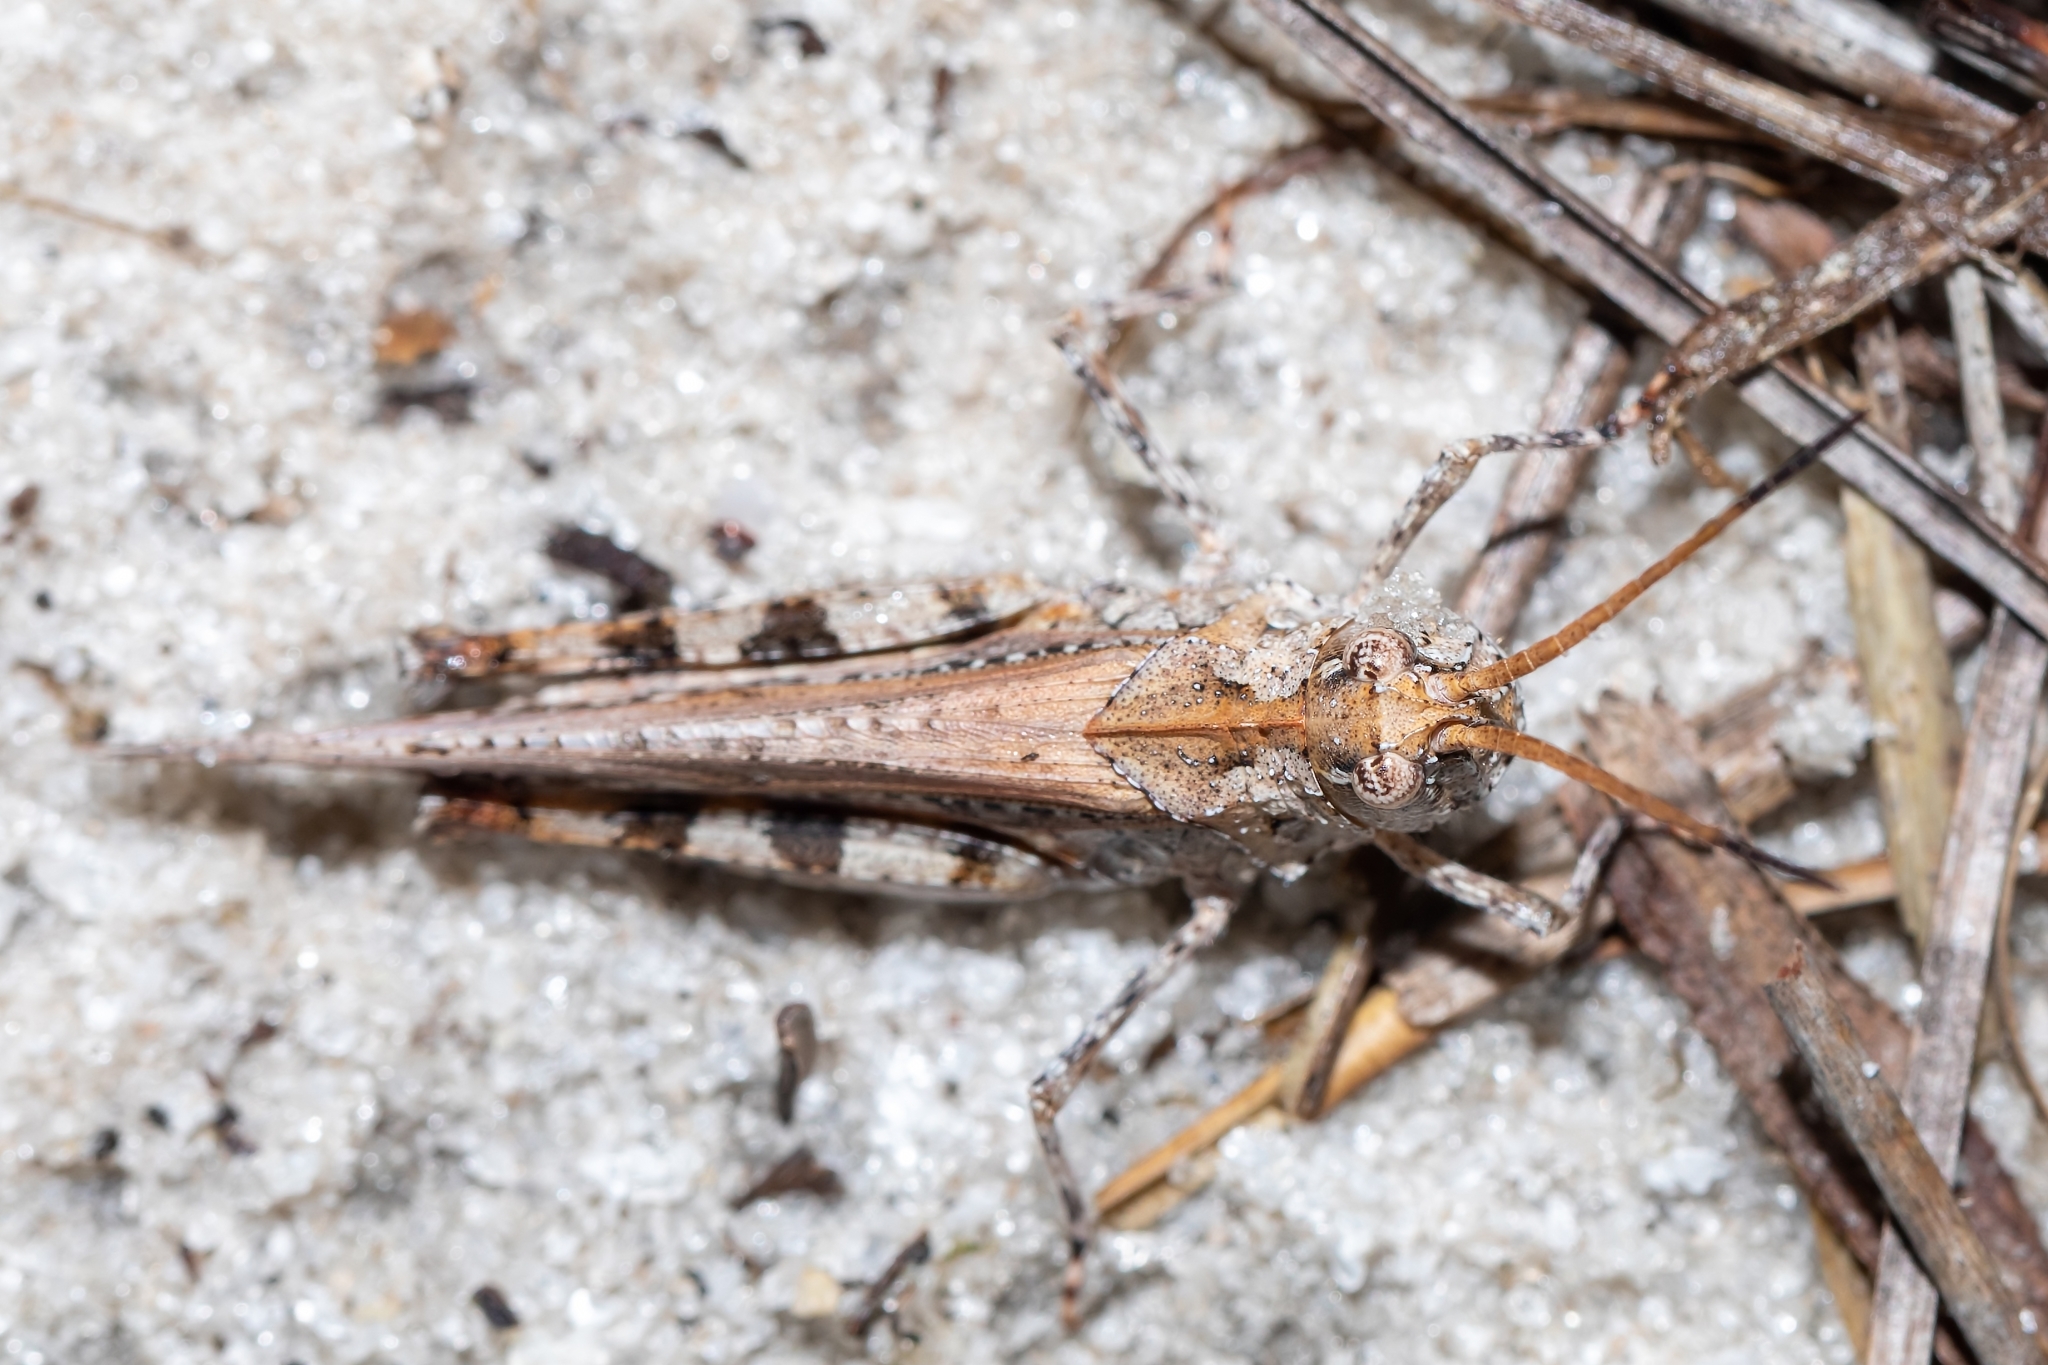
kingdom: Animalia
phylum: Arthropoda
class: Insecta
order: Orthoptera
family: Acrididae
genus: Psinidia
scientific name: Psinidia fenestralis
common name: Long-horned locust
